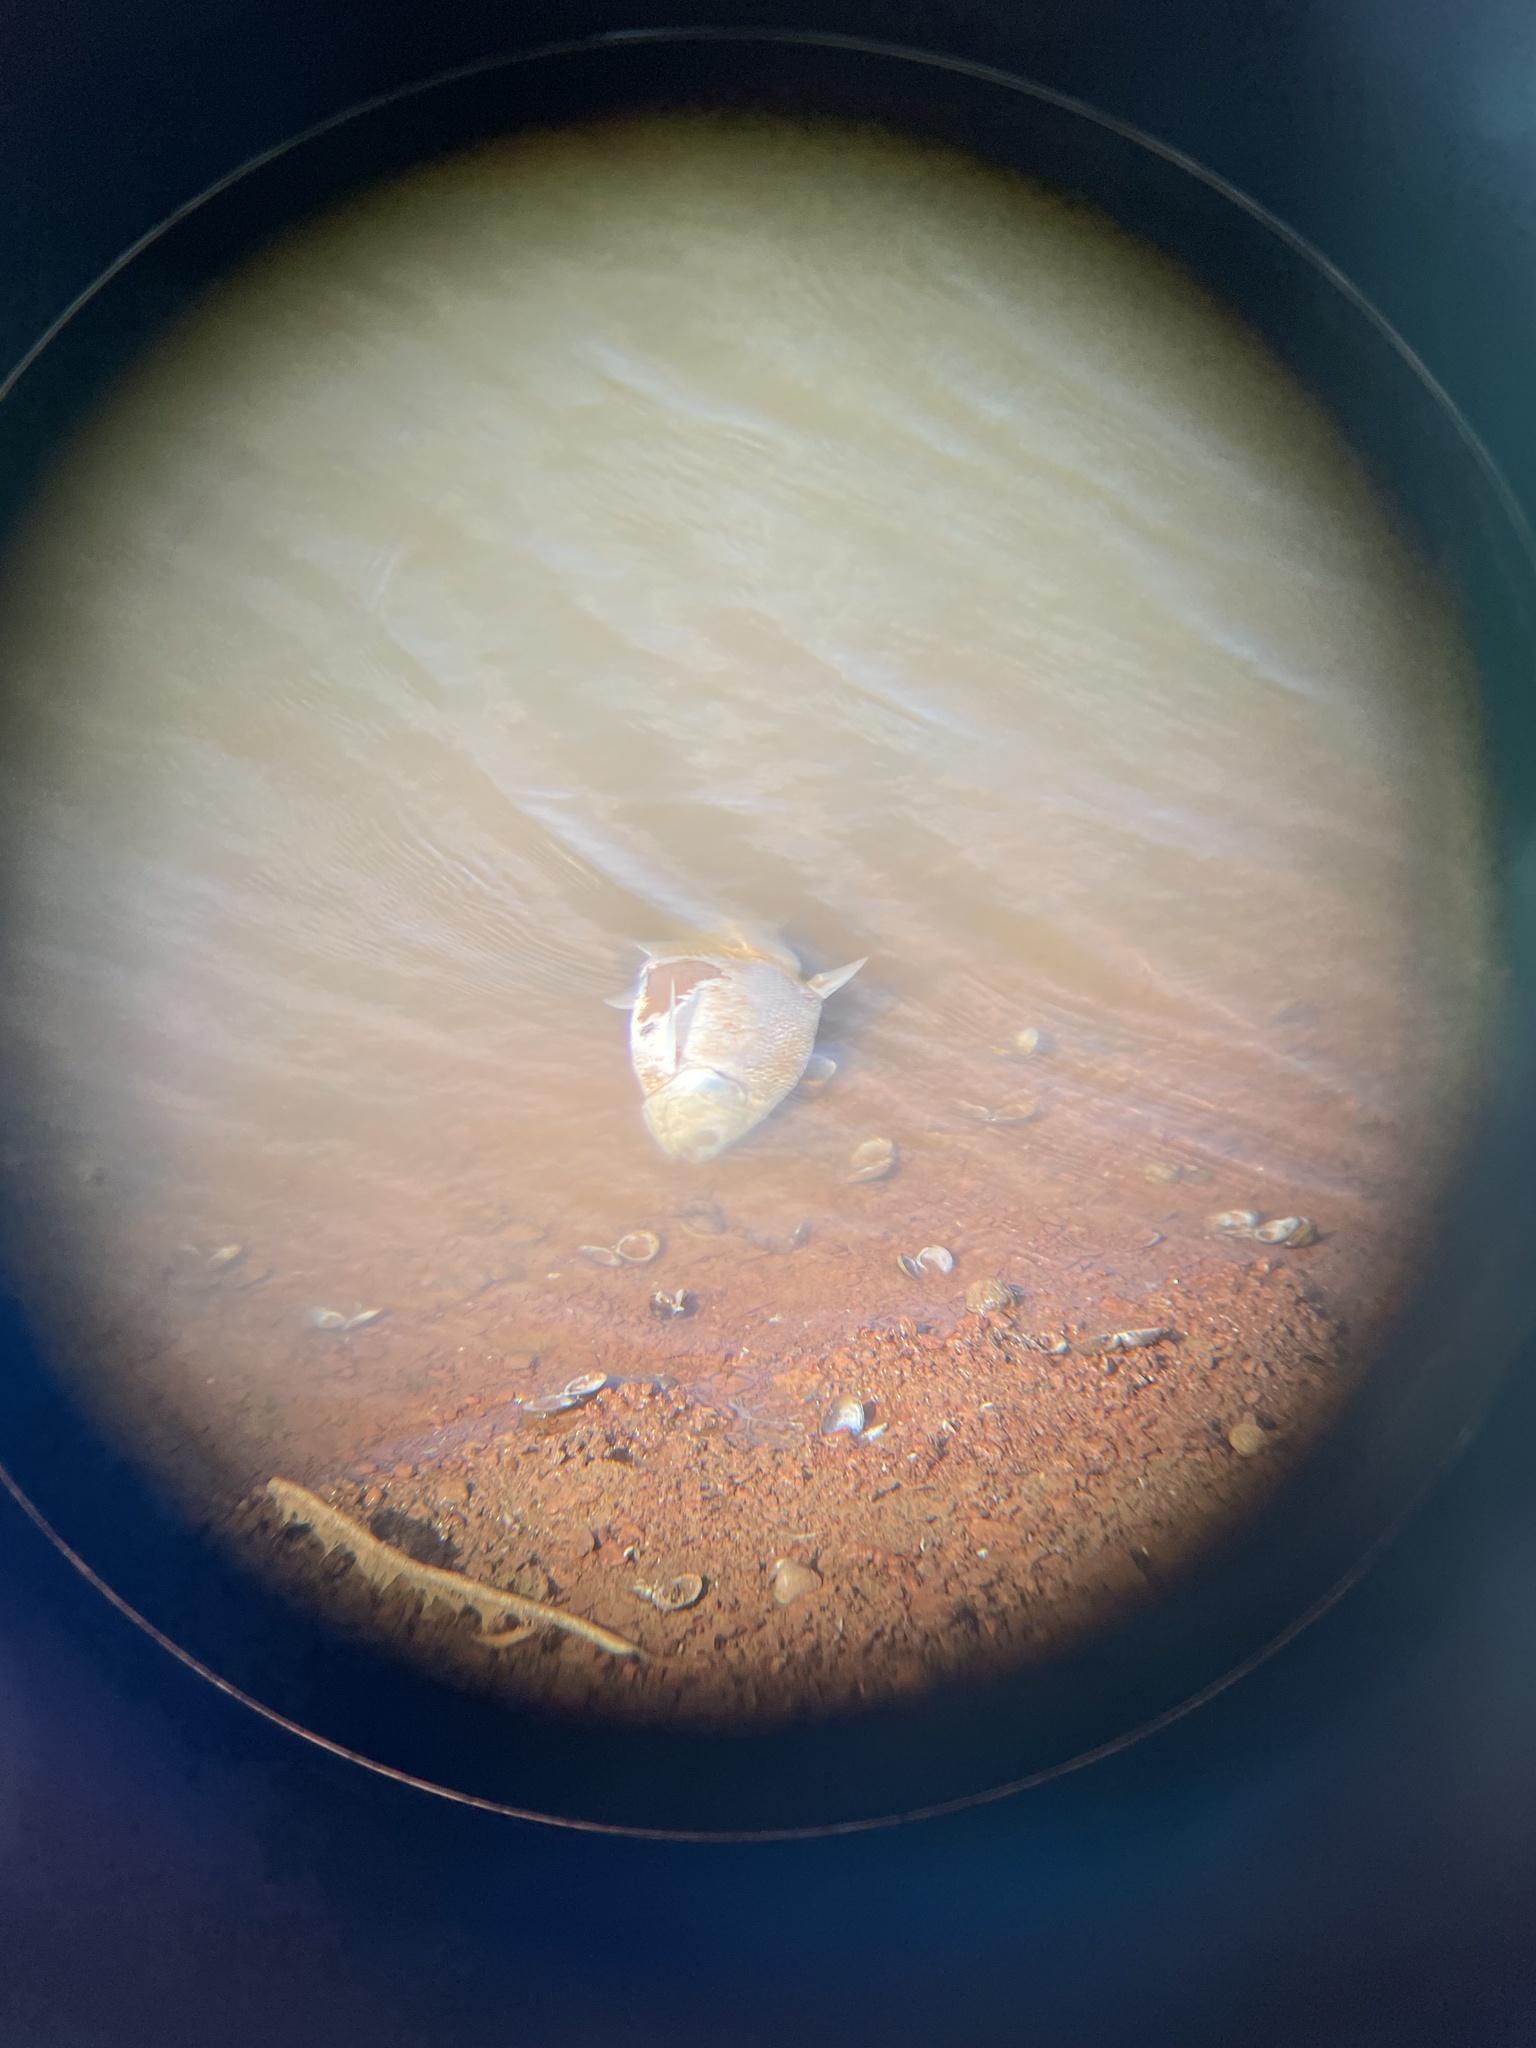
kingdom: Animalia
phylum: Chordata
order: Clupeiformes
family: Clupeidae
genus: Dorosoma
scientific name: Dorosoma cepedianum
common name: Gizzard shad
